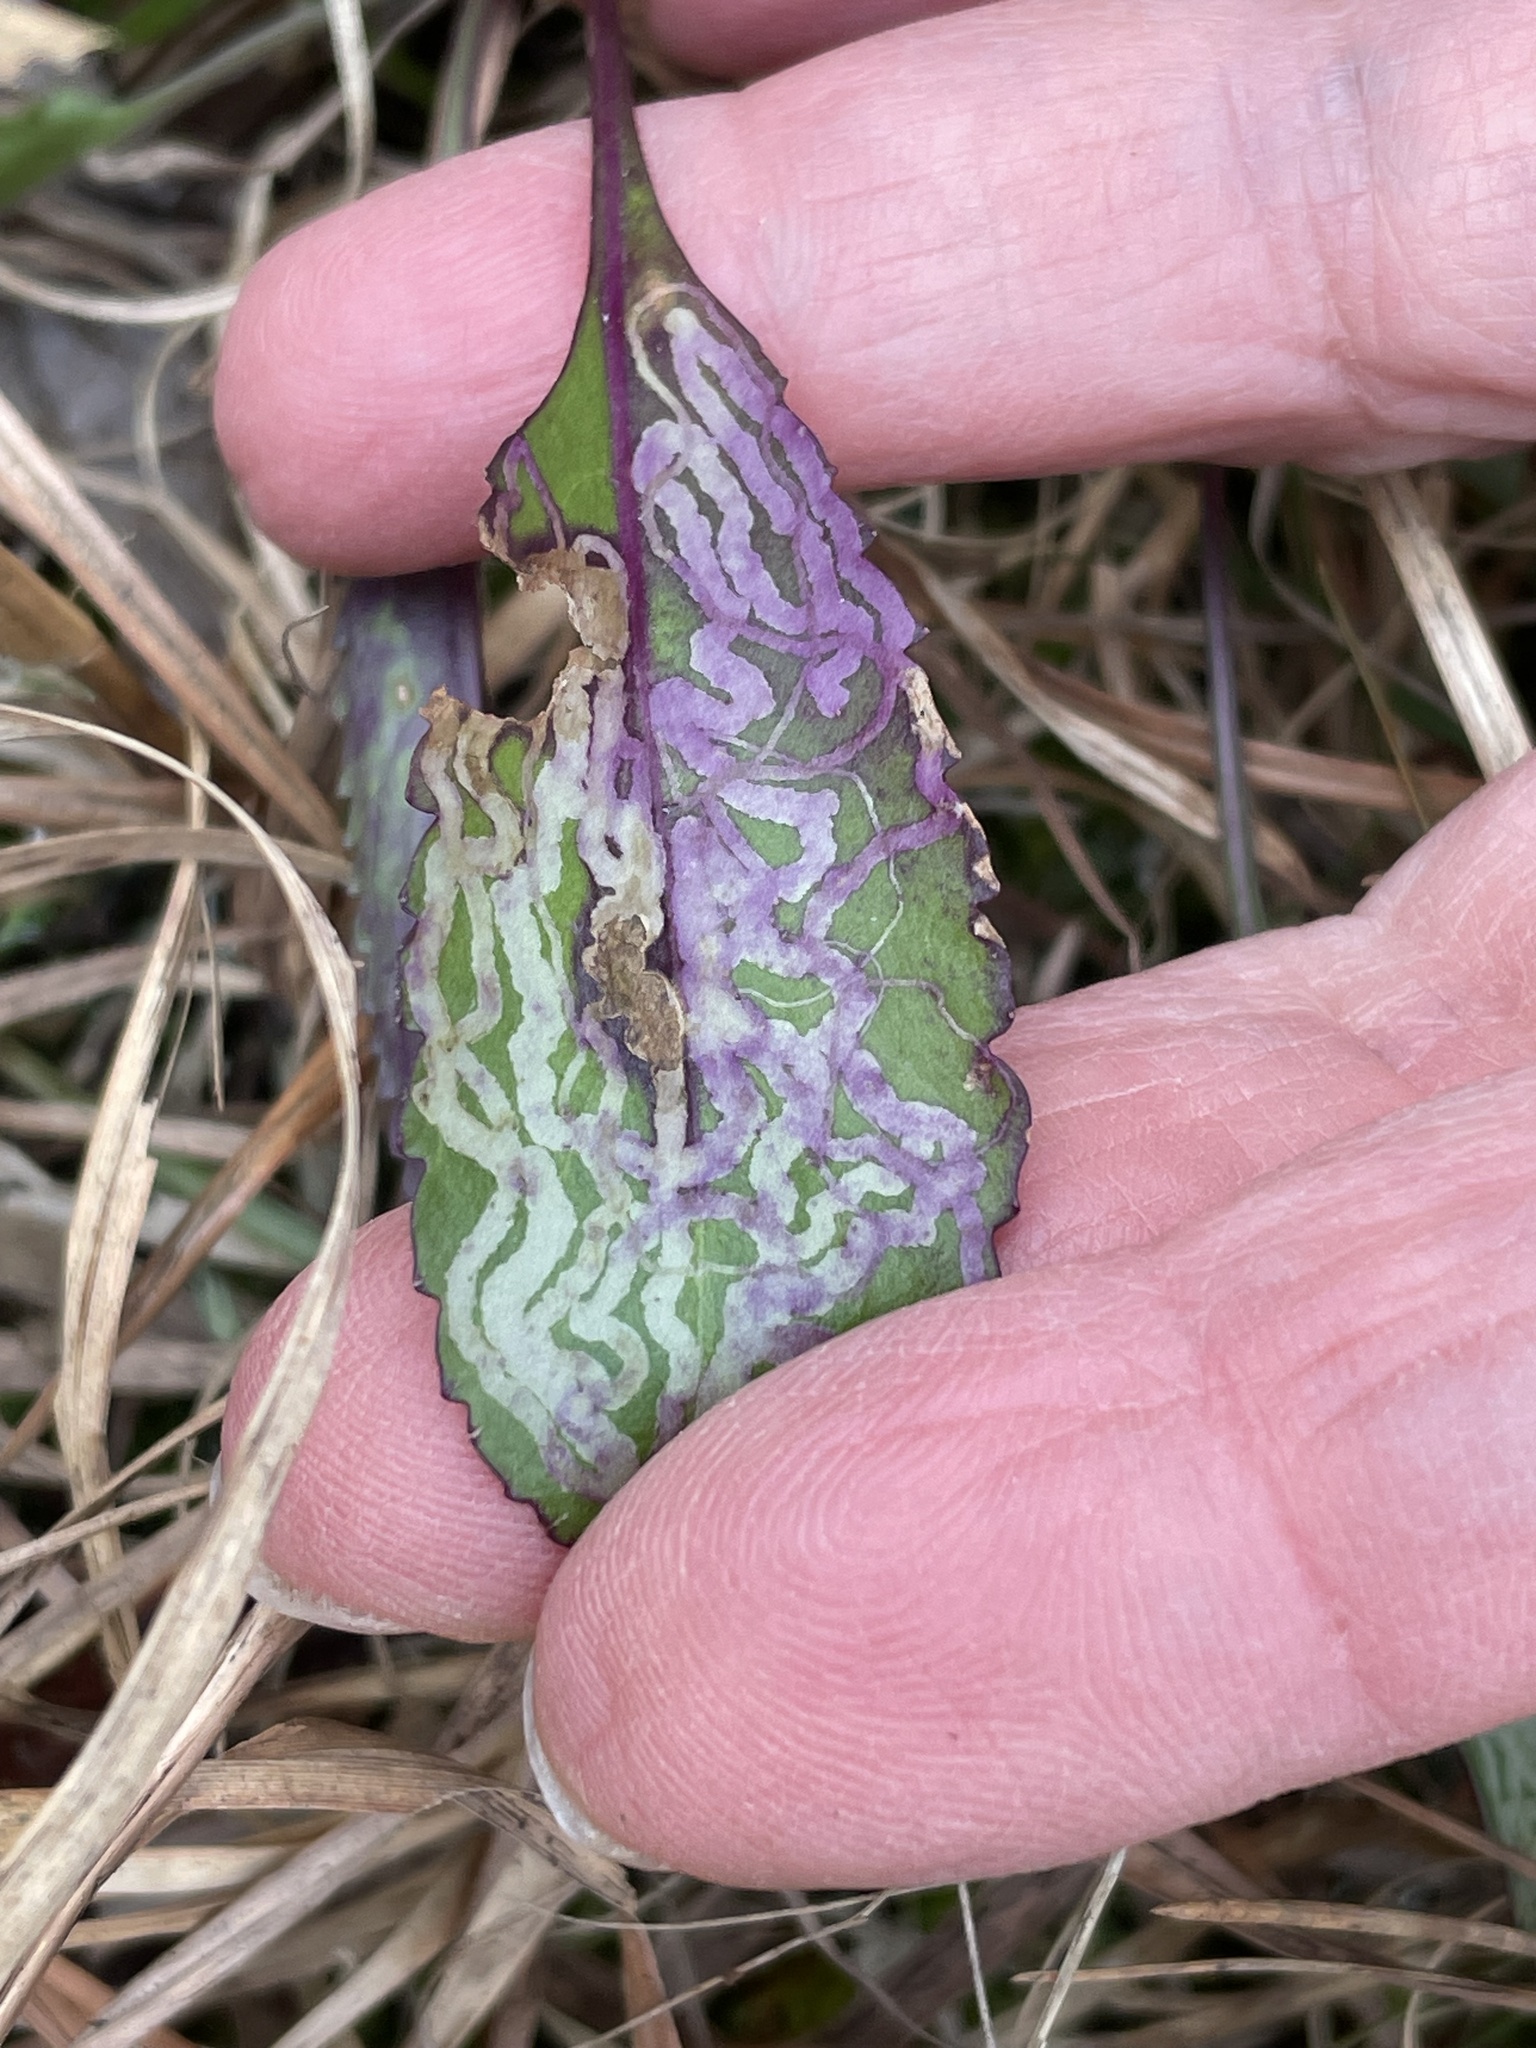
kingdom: Animalia
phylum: Arthropoda
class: Insecta
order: Lepidoptera
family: Gracillariidae
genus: Phyllocnistis
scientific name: Phyllocnistis insignis
